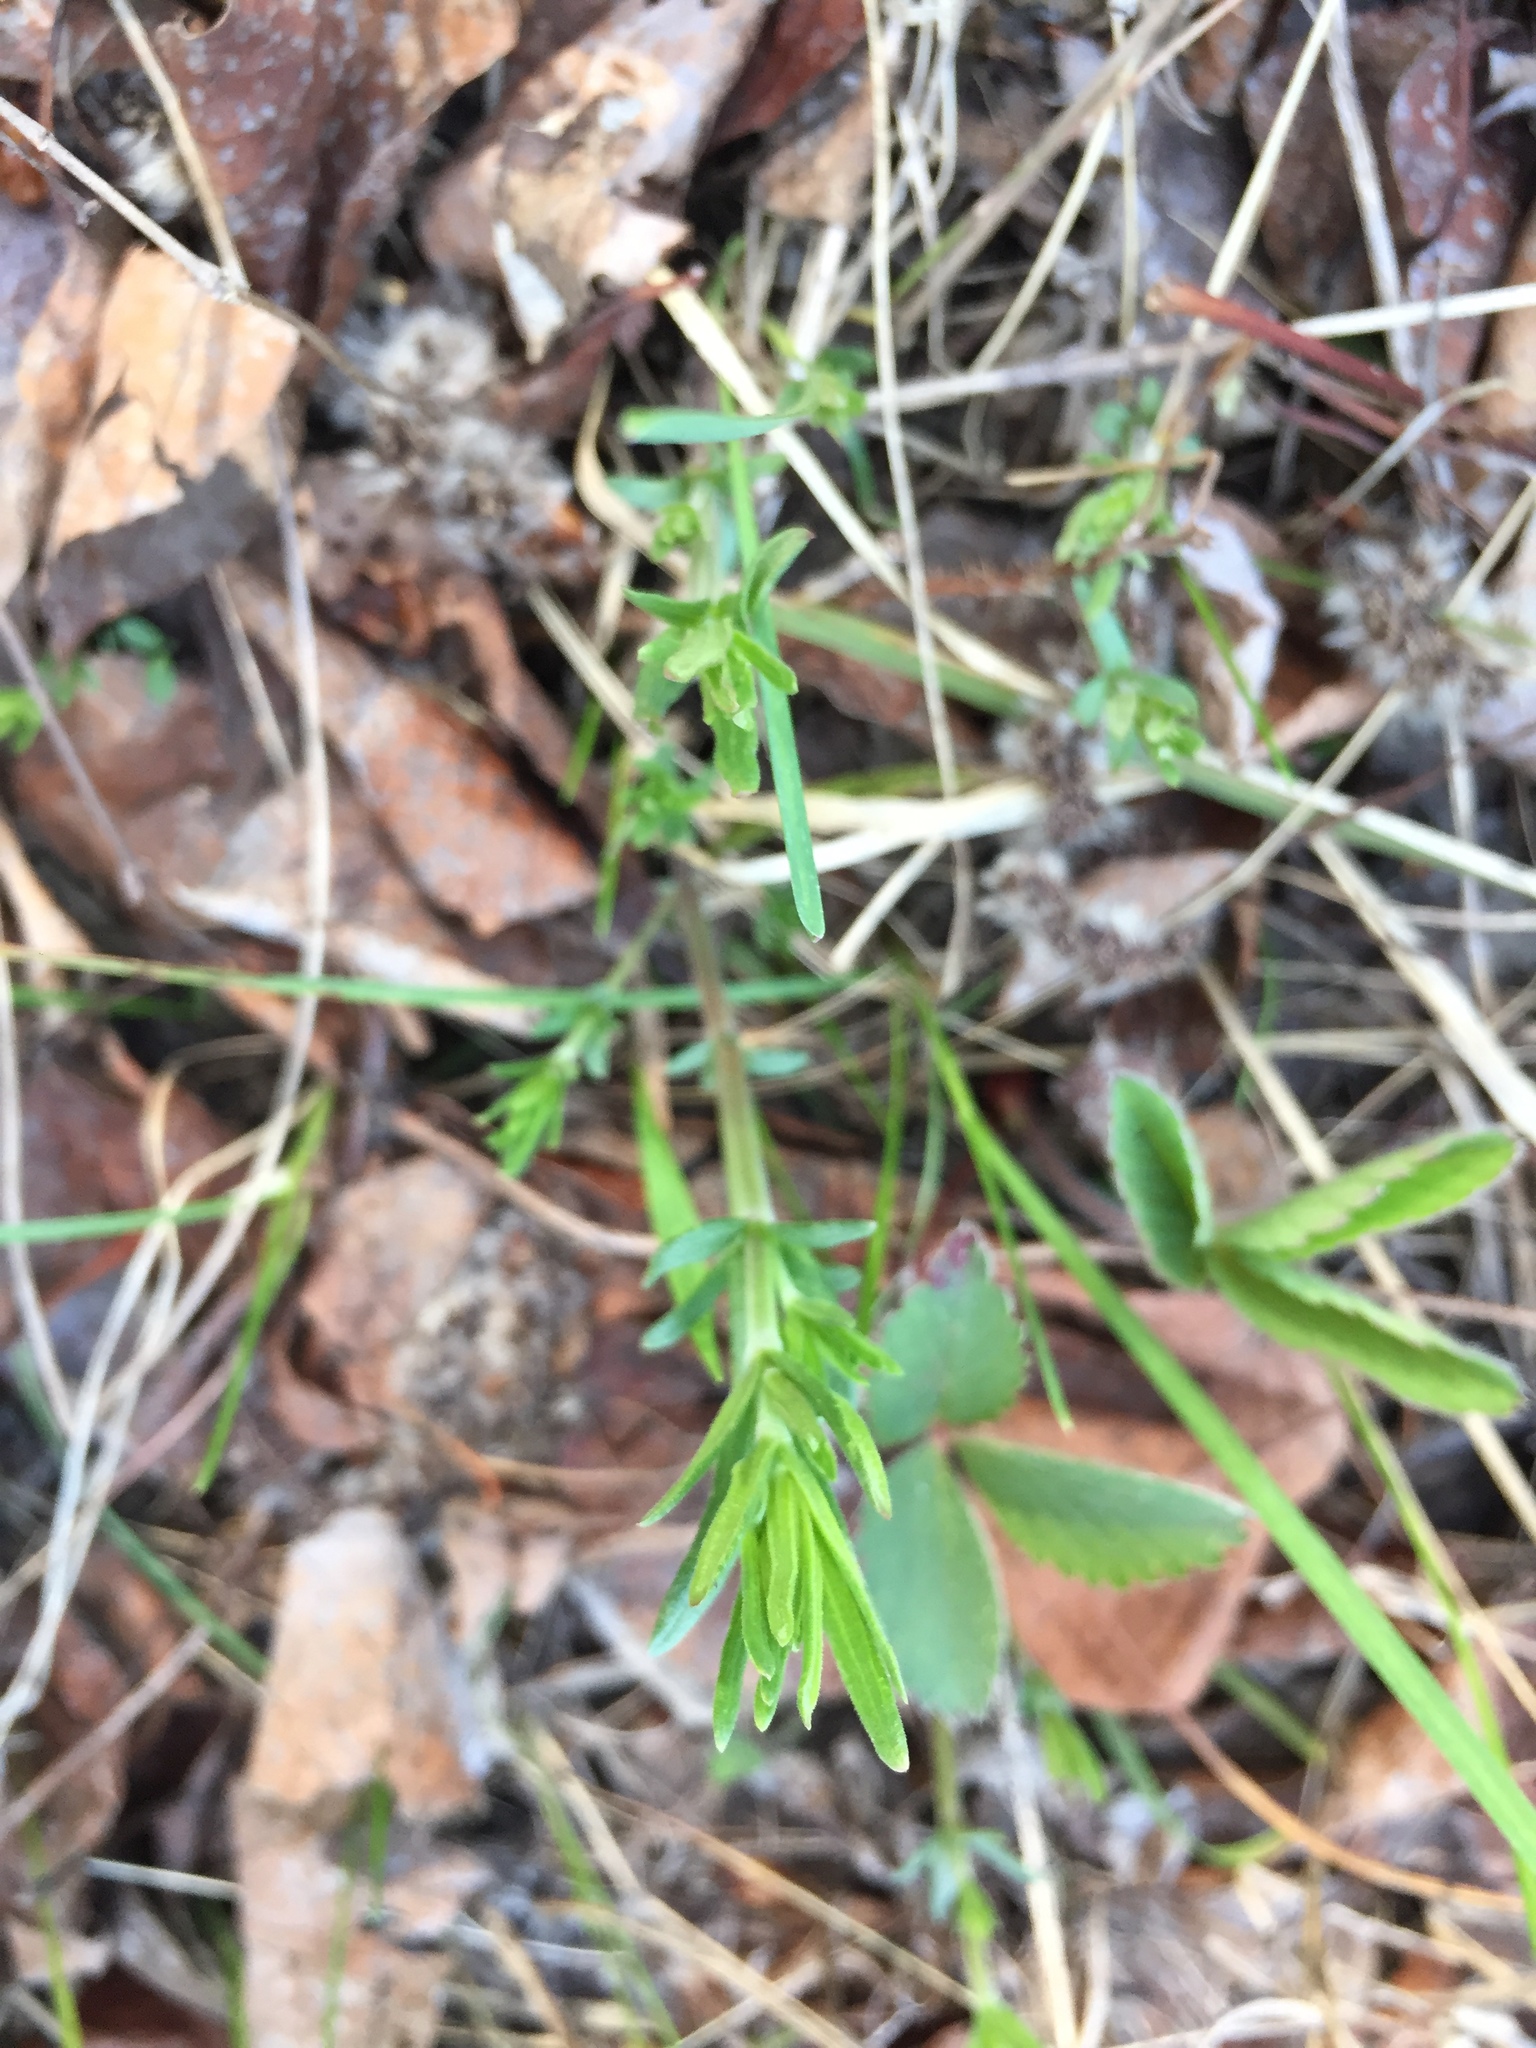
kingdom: Plantae
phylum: Tracheophyta
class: Magnoliopsida
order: Gentianales
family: Rubiaceae
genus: Galium
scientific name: Galium boreale
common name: Northern bedstraw
